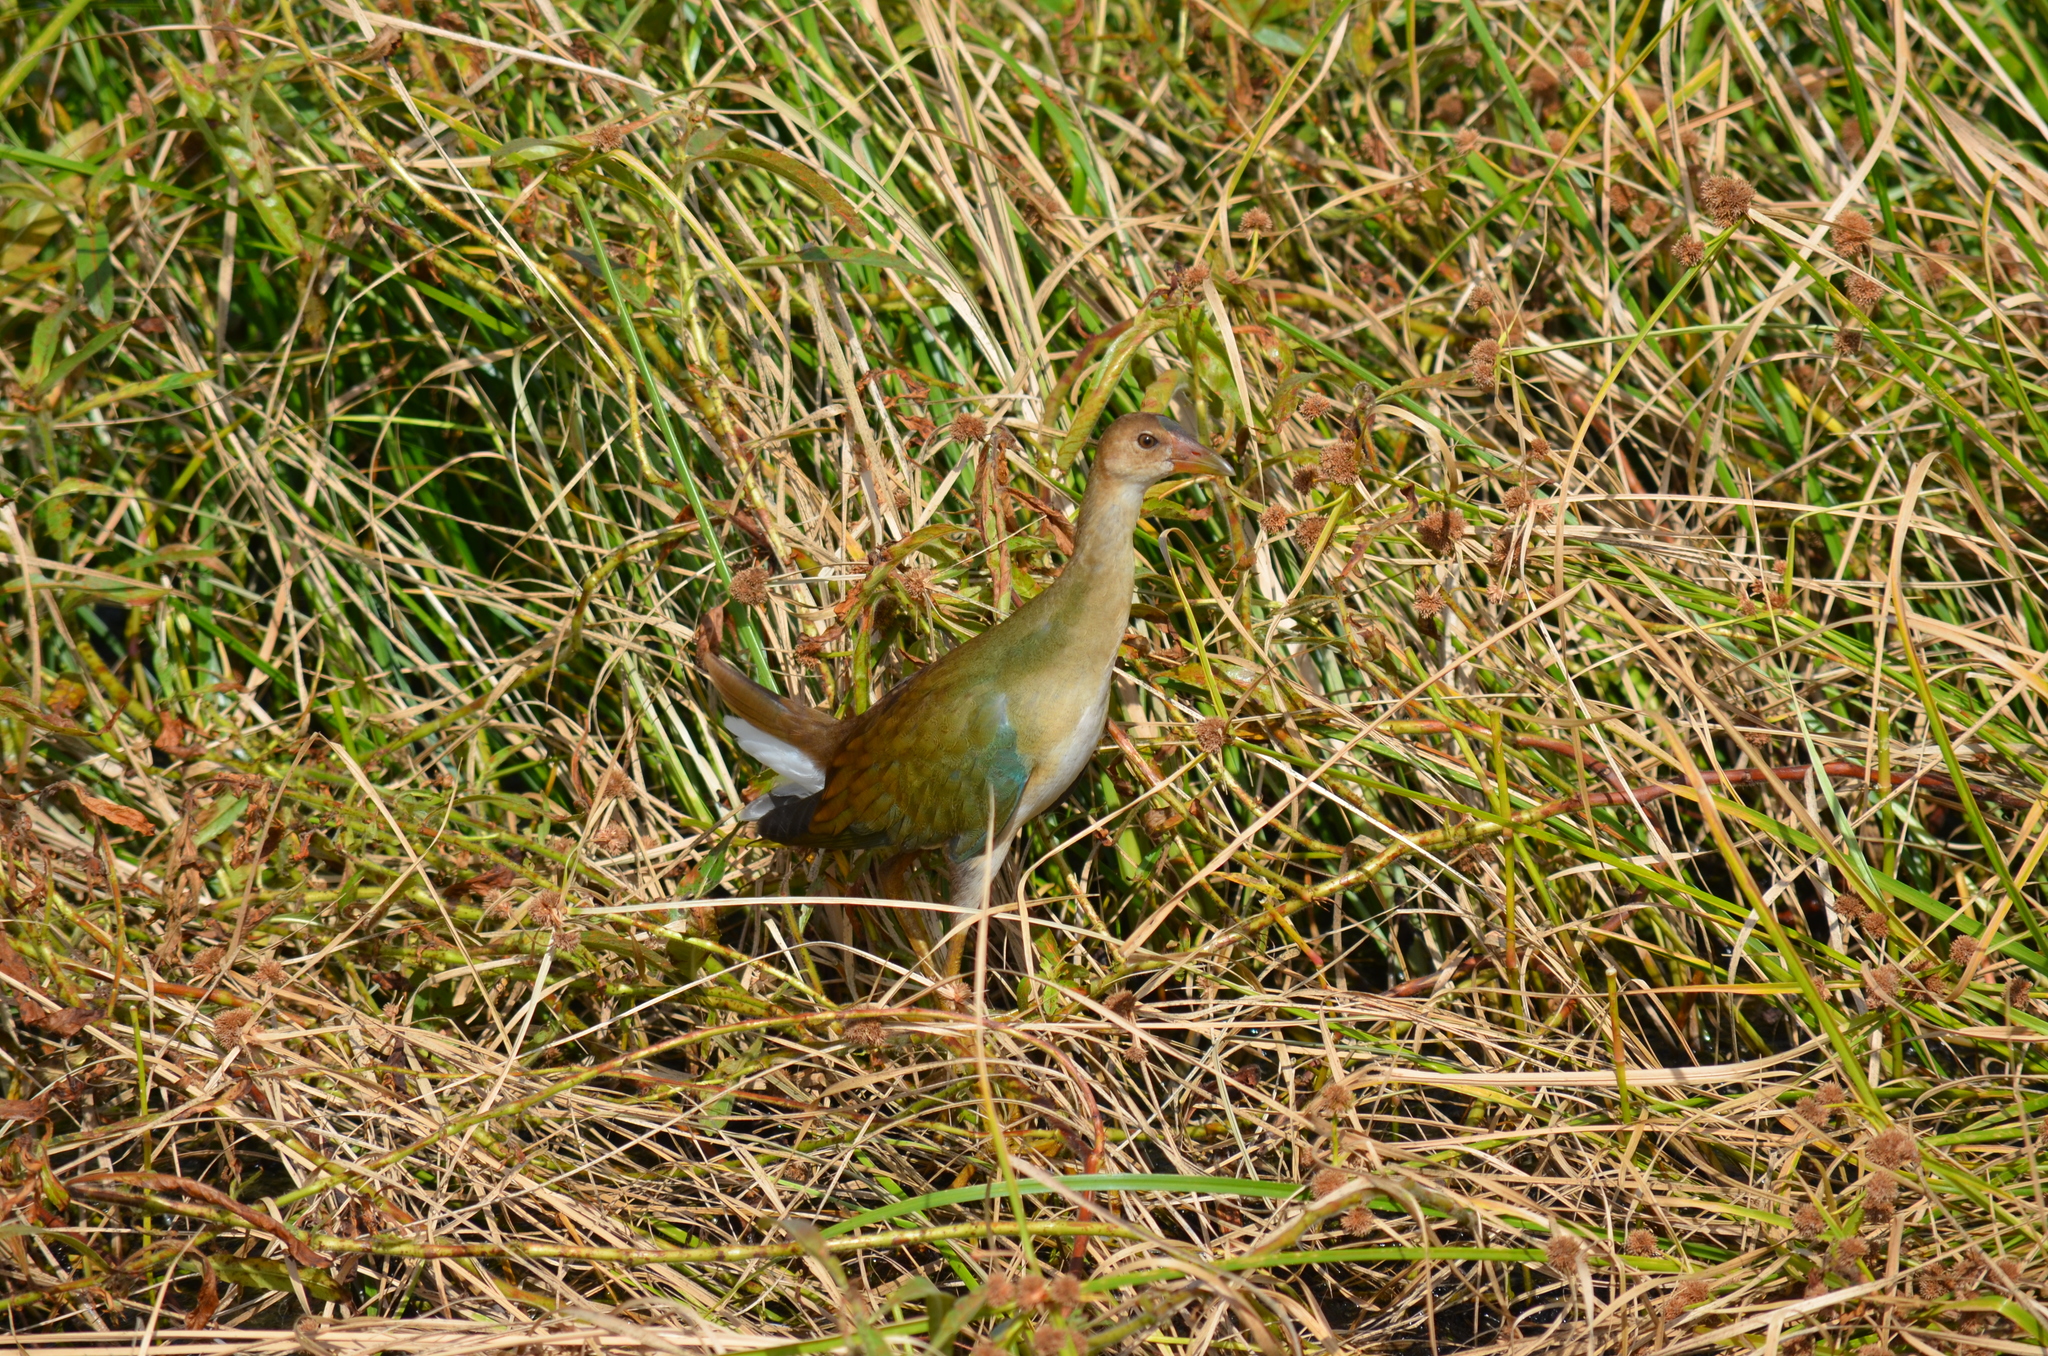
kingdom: Animalia
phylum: Chordata
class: Aves
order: Gruiformes
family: Rallidae
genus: Porphyrio
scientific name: Porphyrio martinica
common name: Purple gallinule
